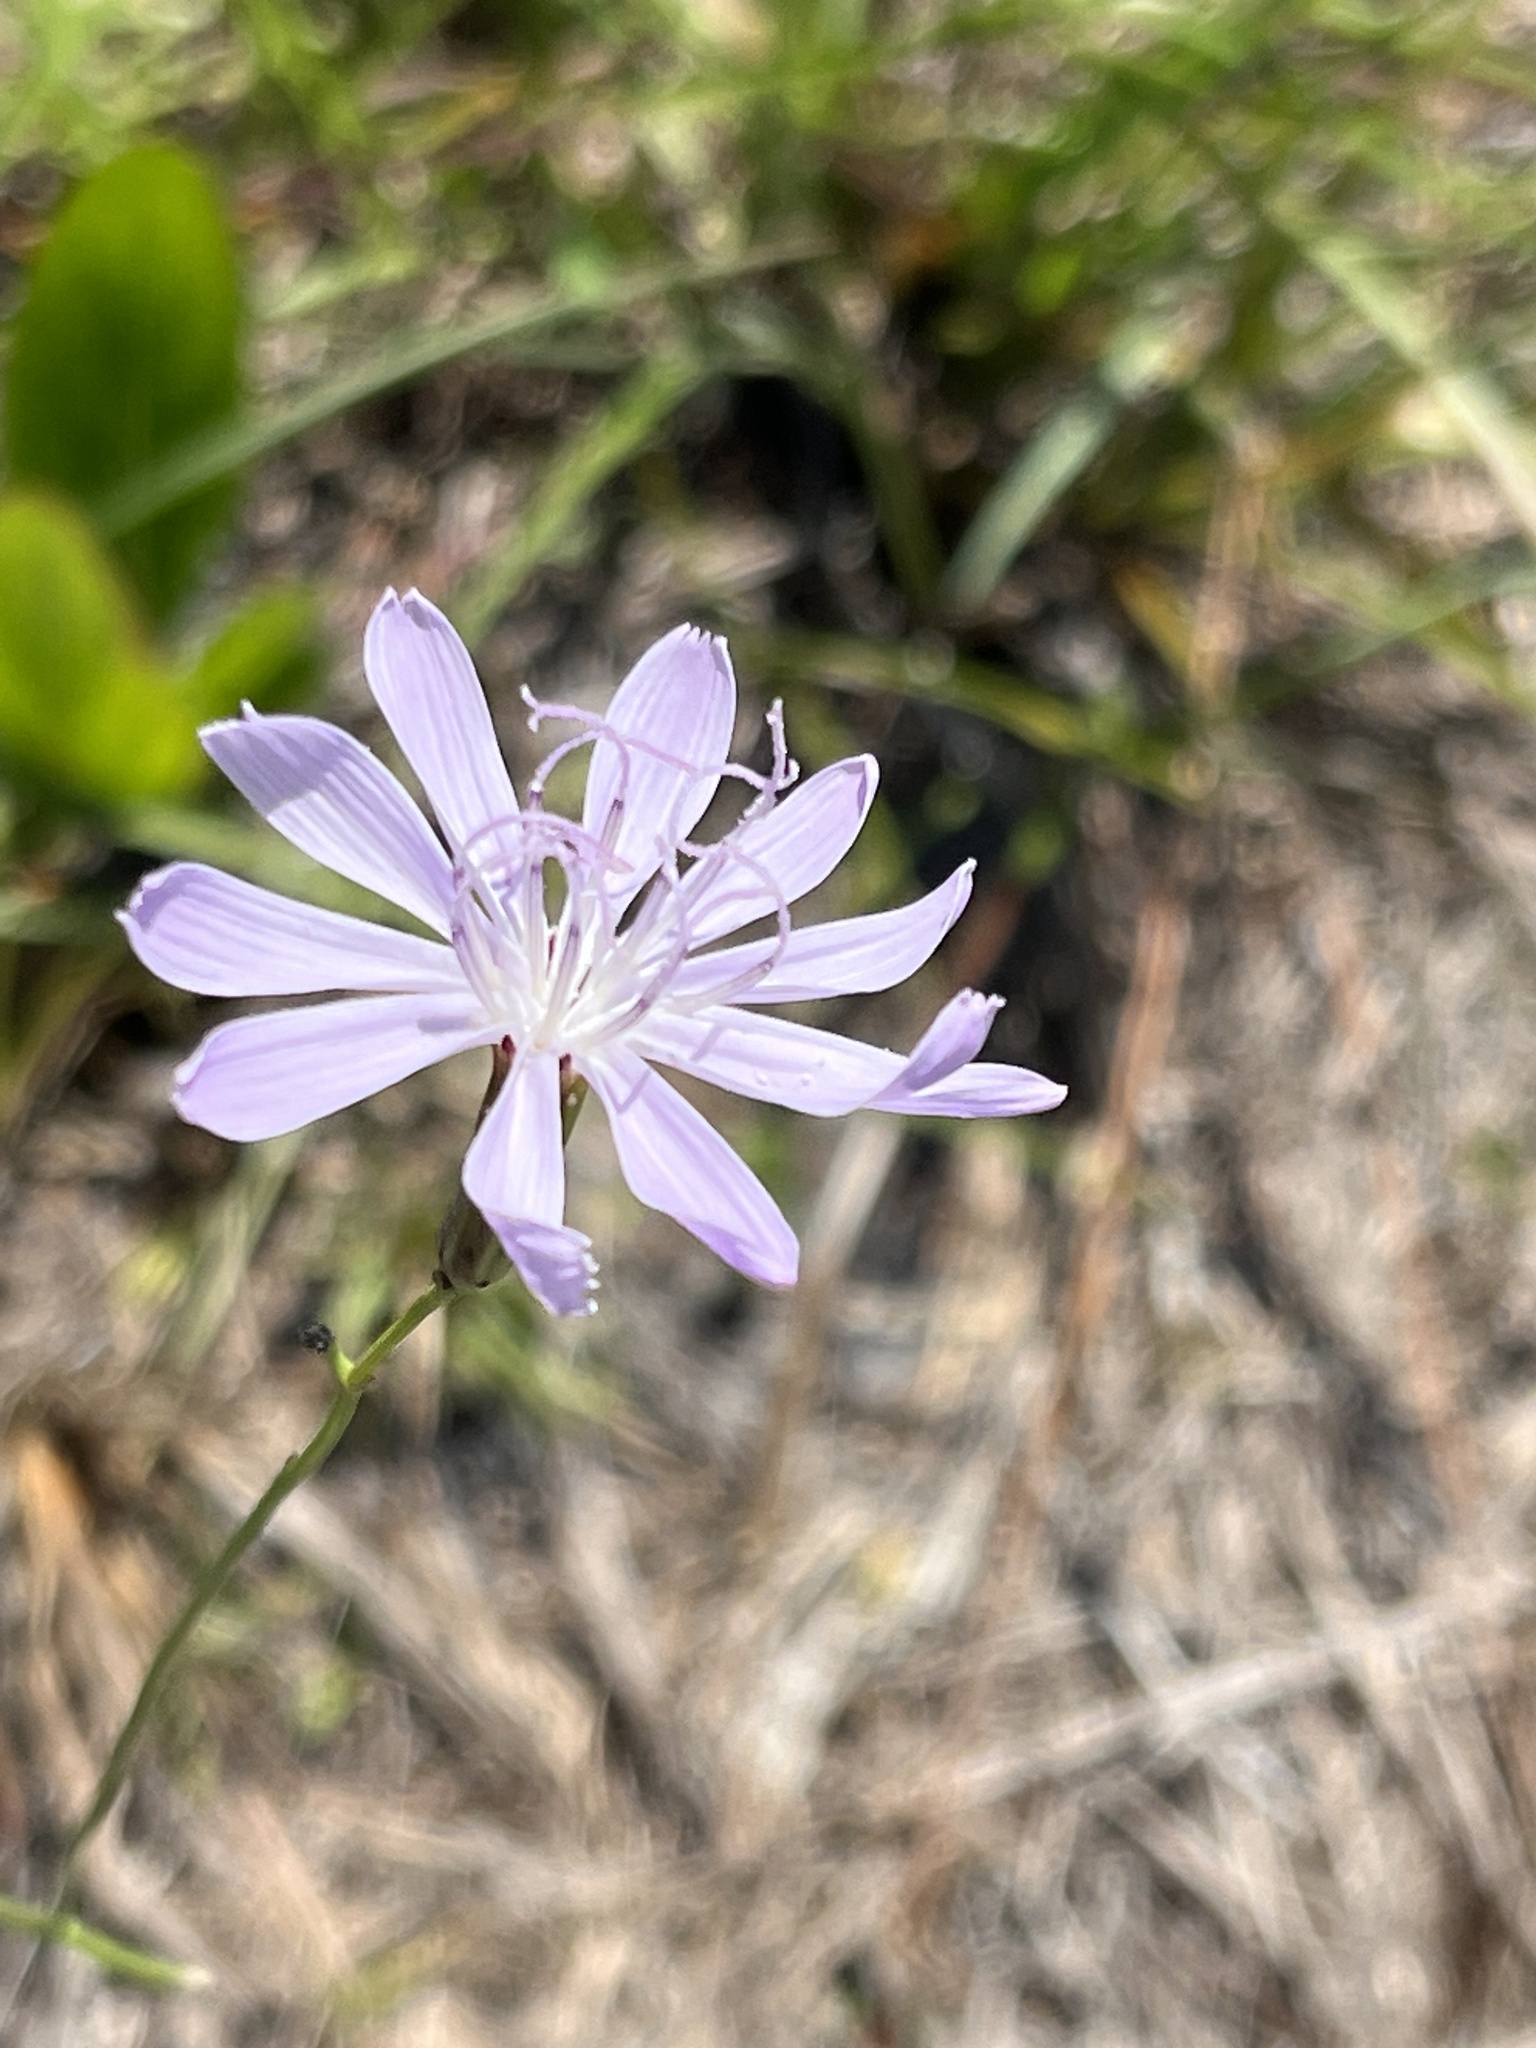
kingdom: Plantae
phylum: Tracheophyta
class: Magnoliopsida
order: Asterales
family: Asteraceae
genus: Lygodesmia
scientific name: Lygodesmia aphylla
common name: Rose-rush
